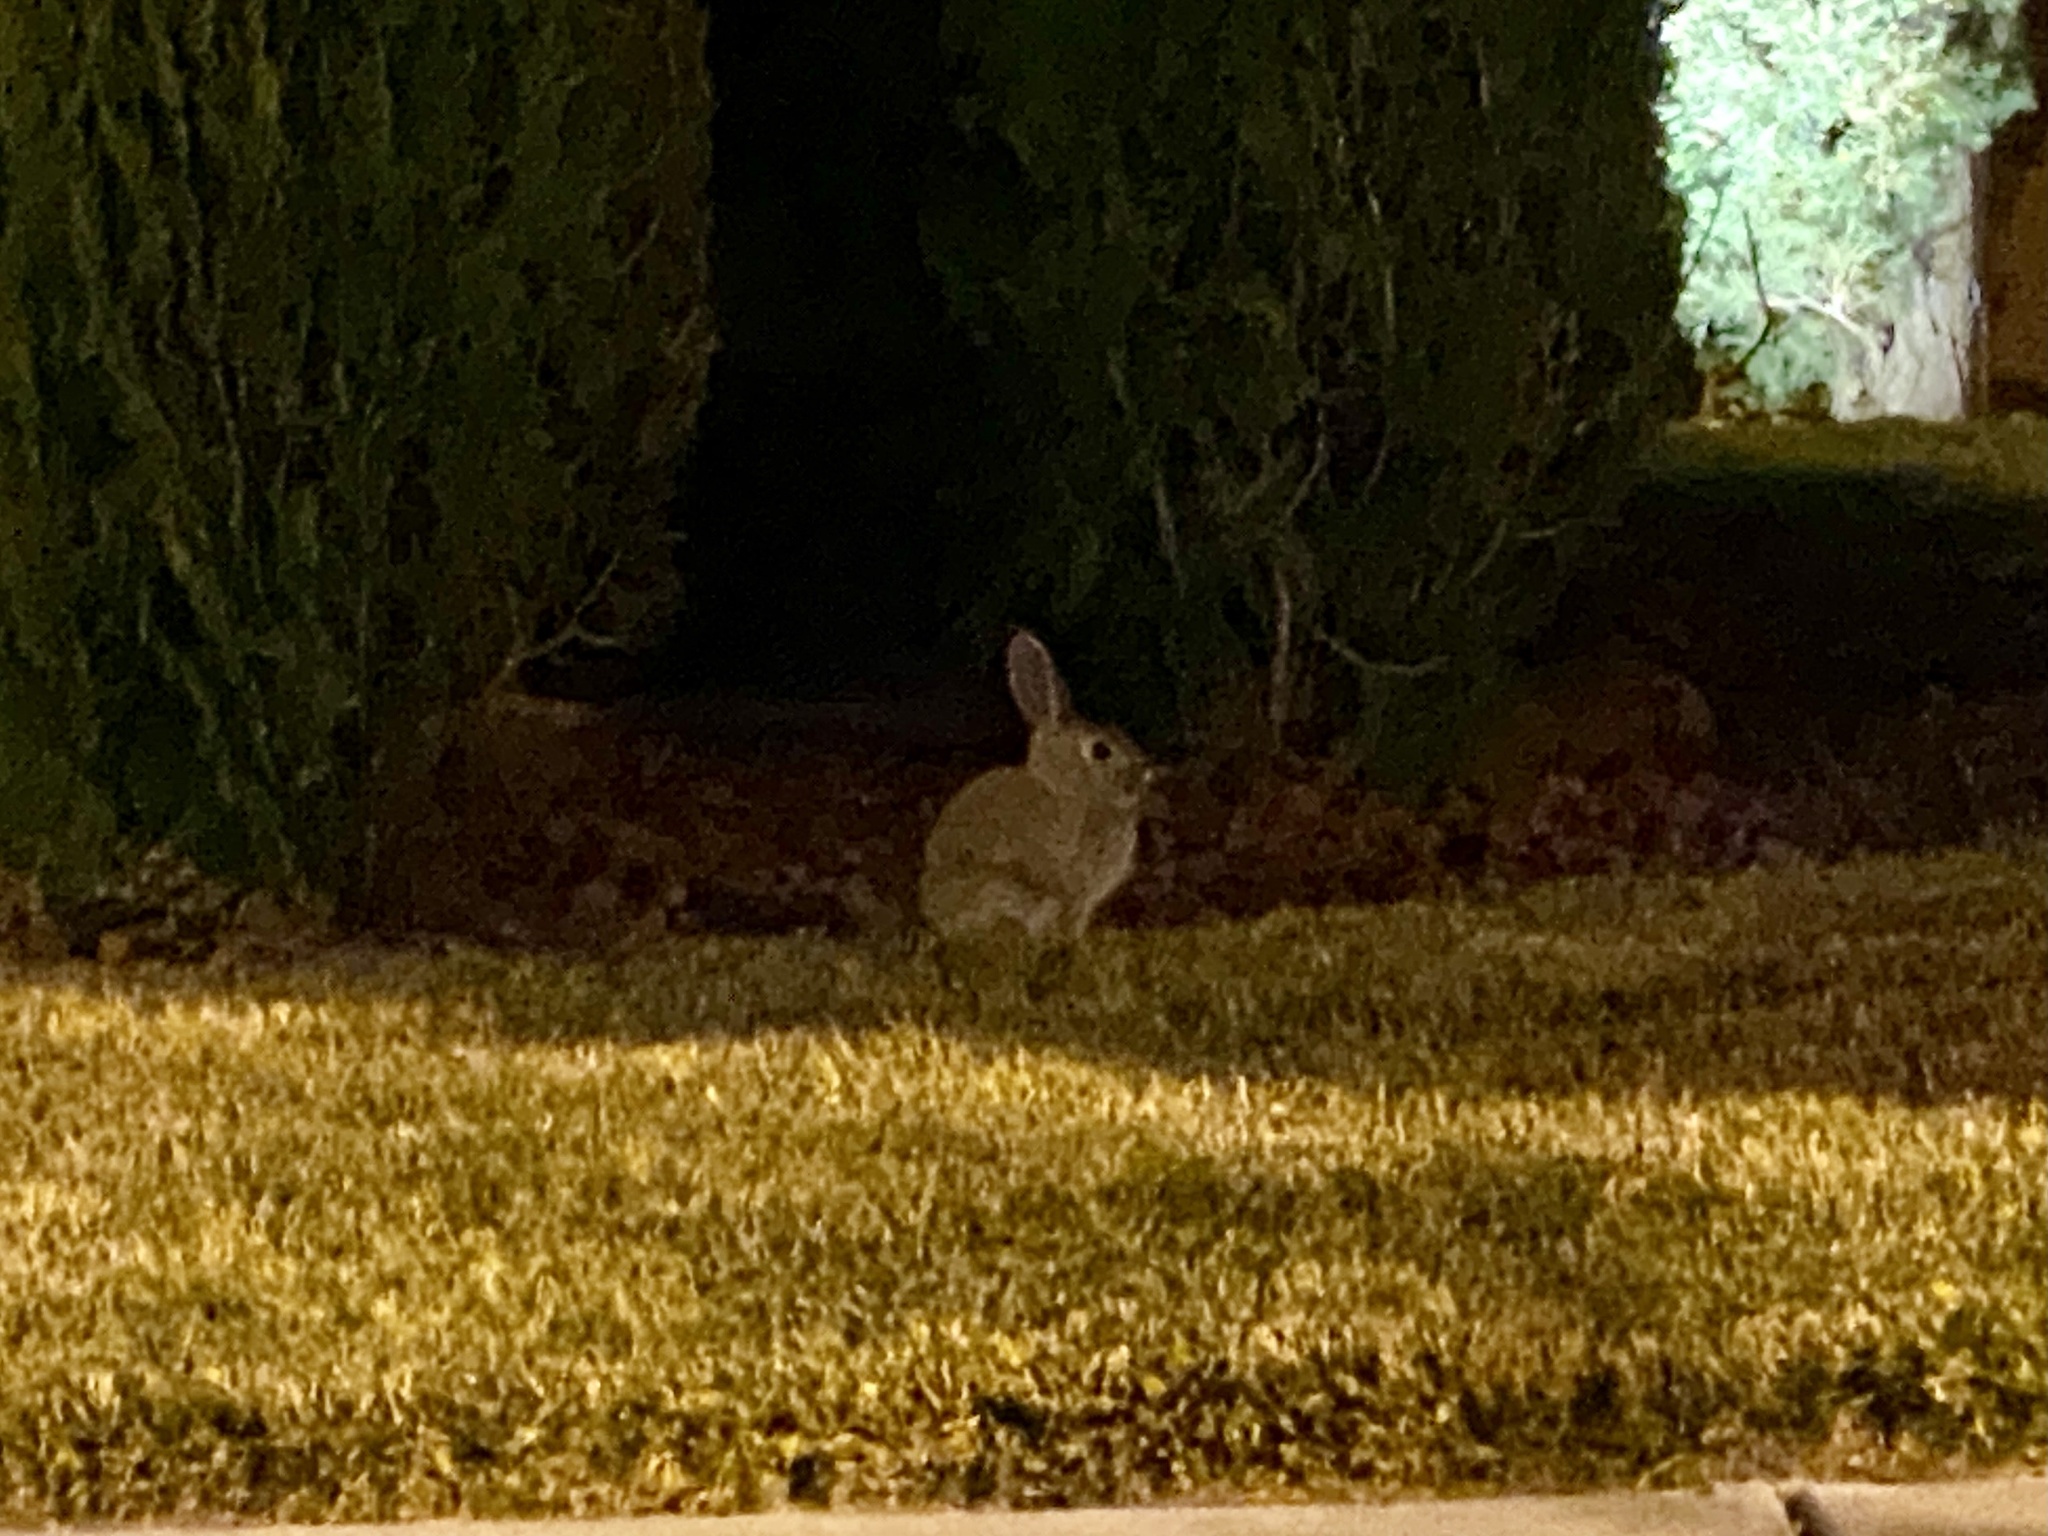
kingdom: Animalia
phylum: Chordata
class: Mammalia
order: Lagomorpha
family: Leporidae
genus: Sylvilagus
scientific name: Sylvilagus audubonii
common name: Desert cottontail
